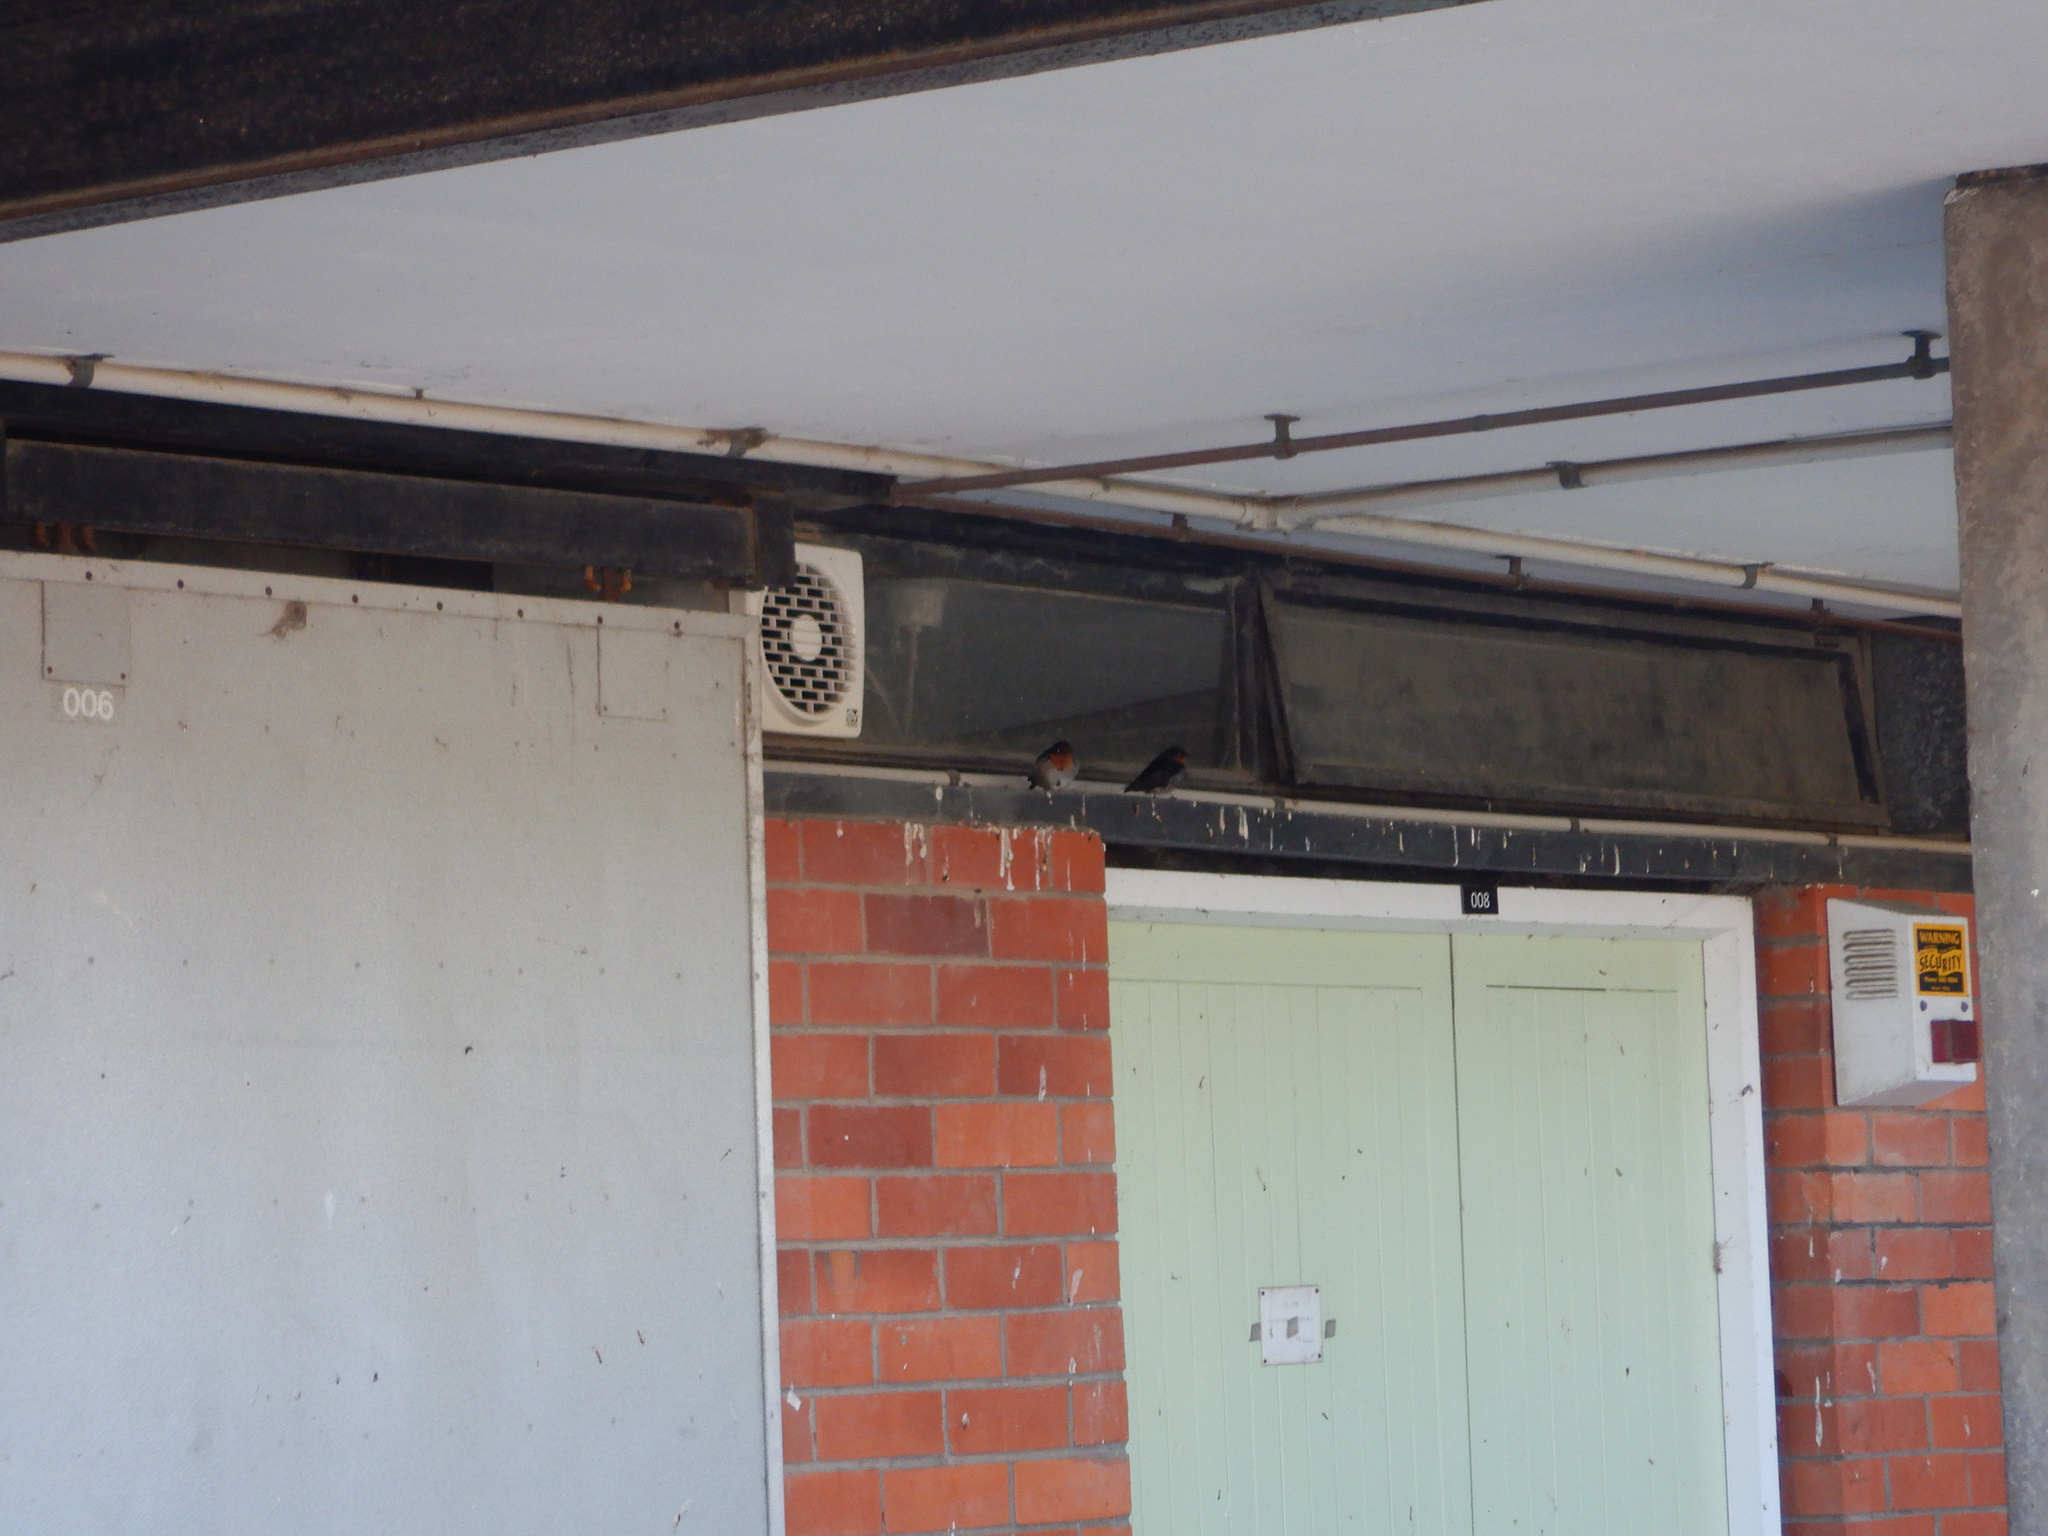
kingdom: Animalia
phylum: Chordata
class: Aves
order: Passeriformes
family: Hirundinidae
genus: Hirundo
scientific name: Hirundo neoxena
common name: Welcome swallow
